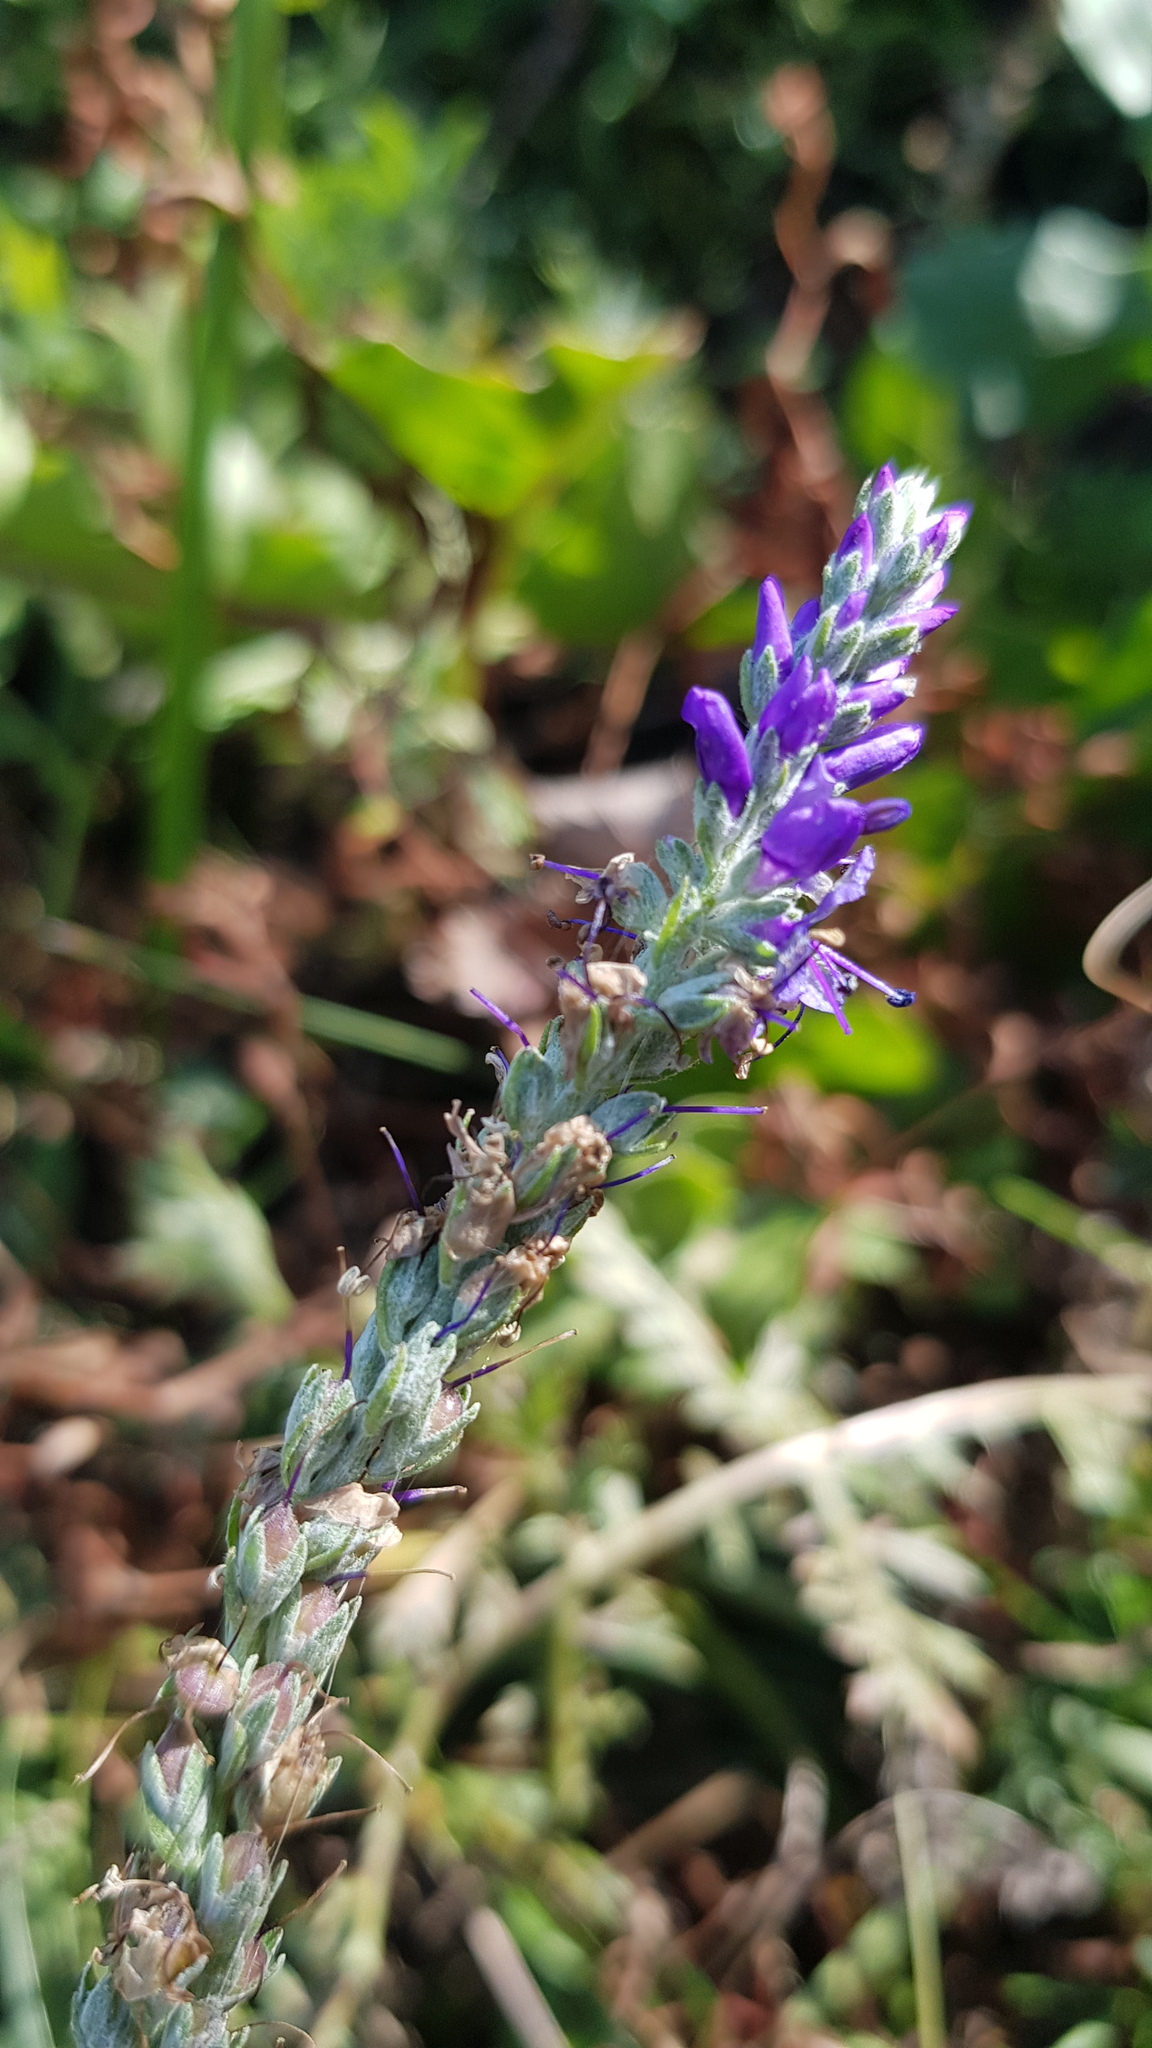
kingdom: Plantae
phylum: Tracheophyta
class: Magnoliopsida
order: Lamiales
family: Plantaginaceae
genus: Veronica
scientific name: Veronica incana
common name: Silver speedwell
